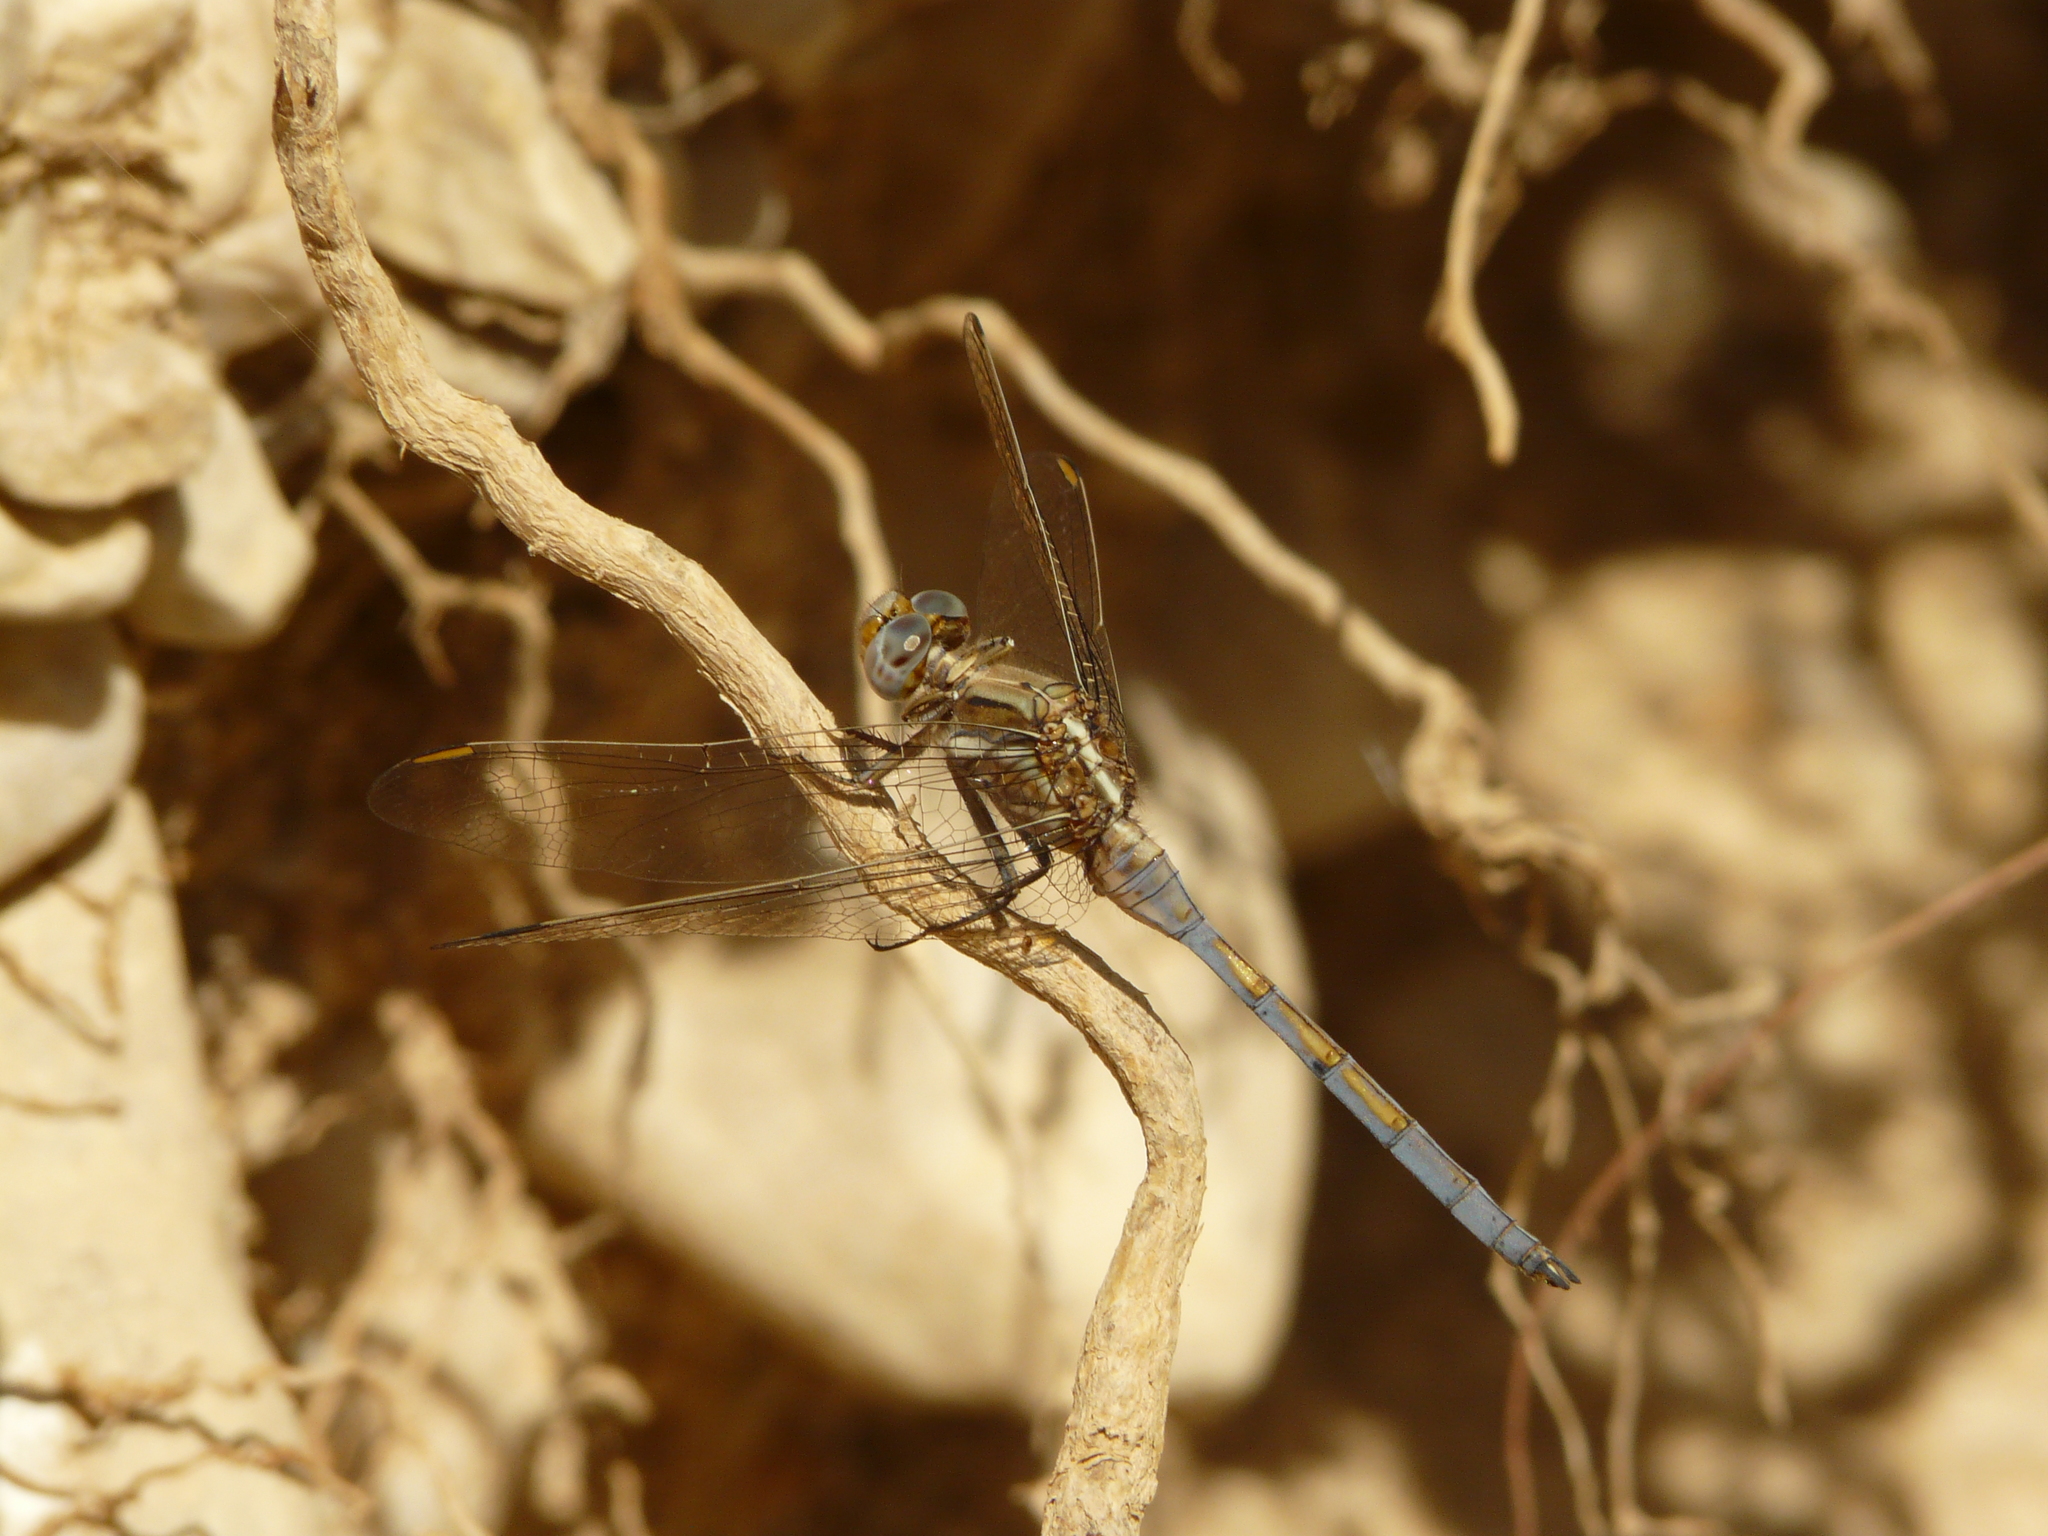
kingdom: Animalia
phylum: Arthropoda
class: Insecta
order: Odonata
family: Libellulidae
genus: Orthetrum
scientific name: Orthetrum chrysostigma
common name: Epaulet skimmer
